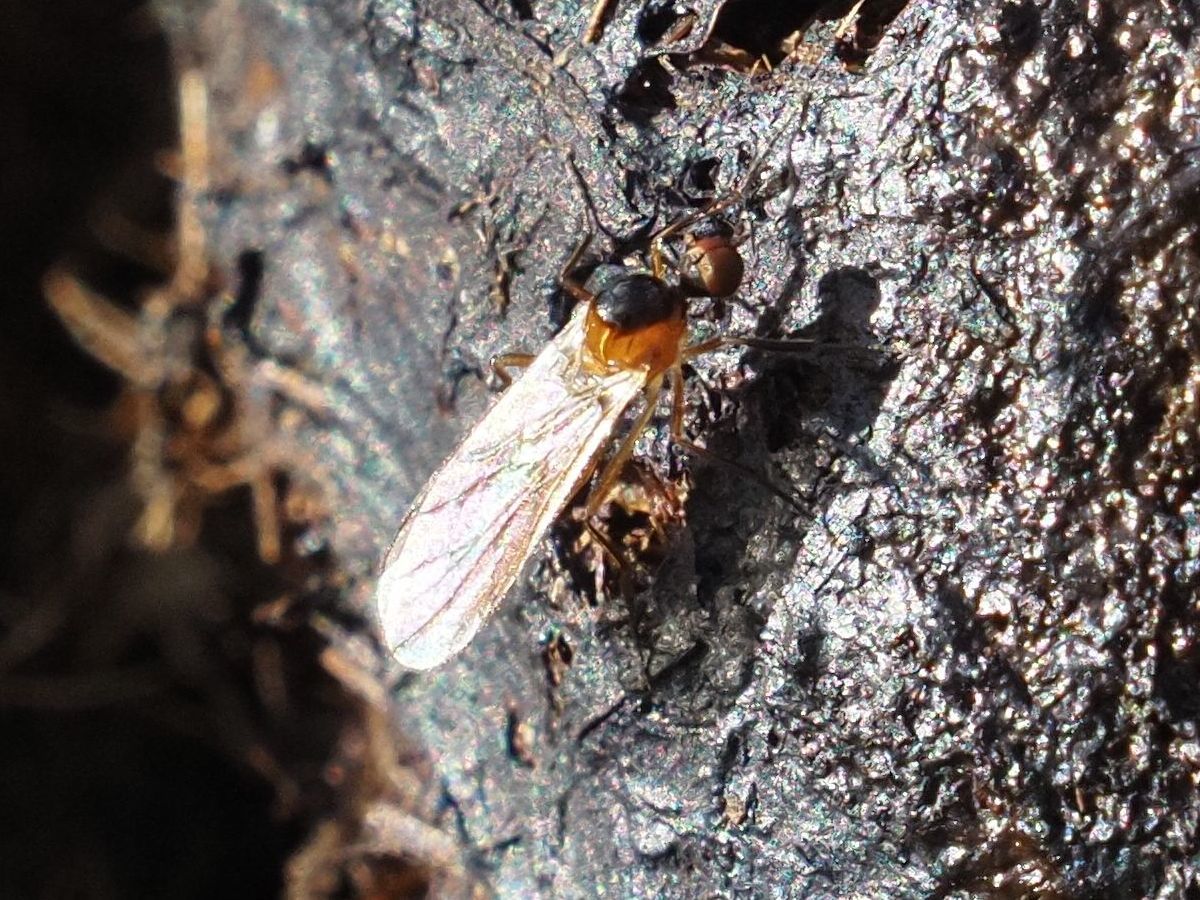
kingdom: Animalia
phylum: Arthropoda
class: Insecta
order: Diptera
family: Hybotidae
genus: Ocydromia
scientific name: Ocydromia glabricula
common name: Dance fly
